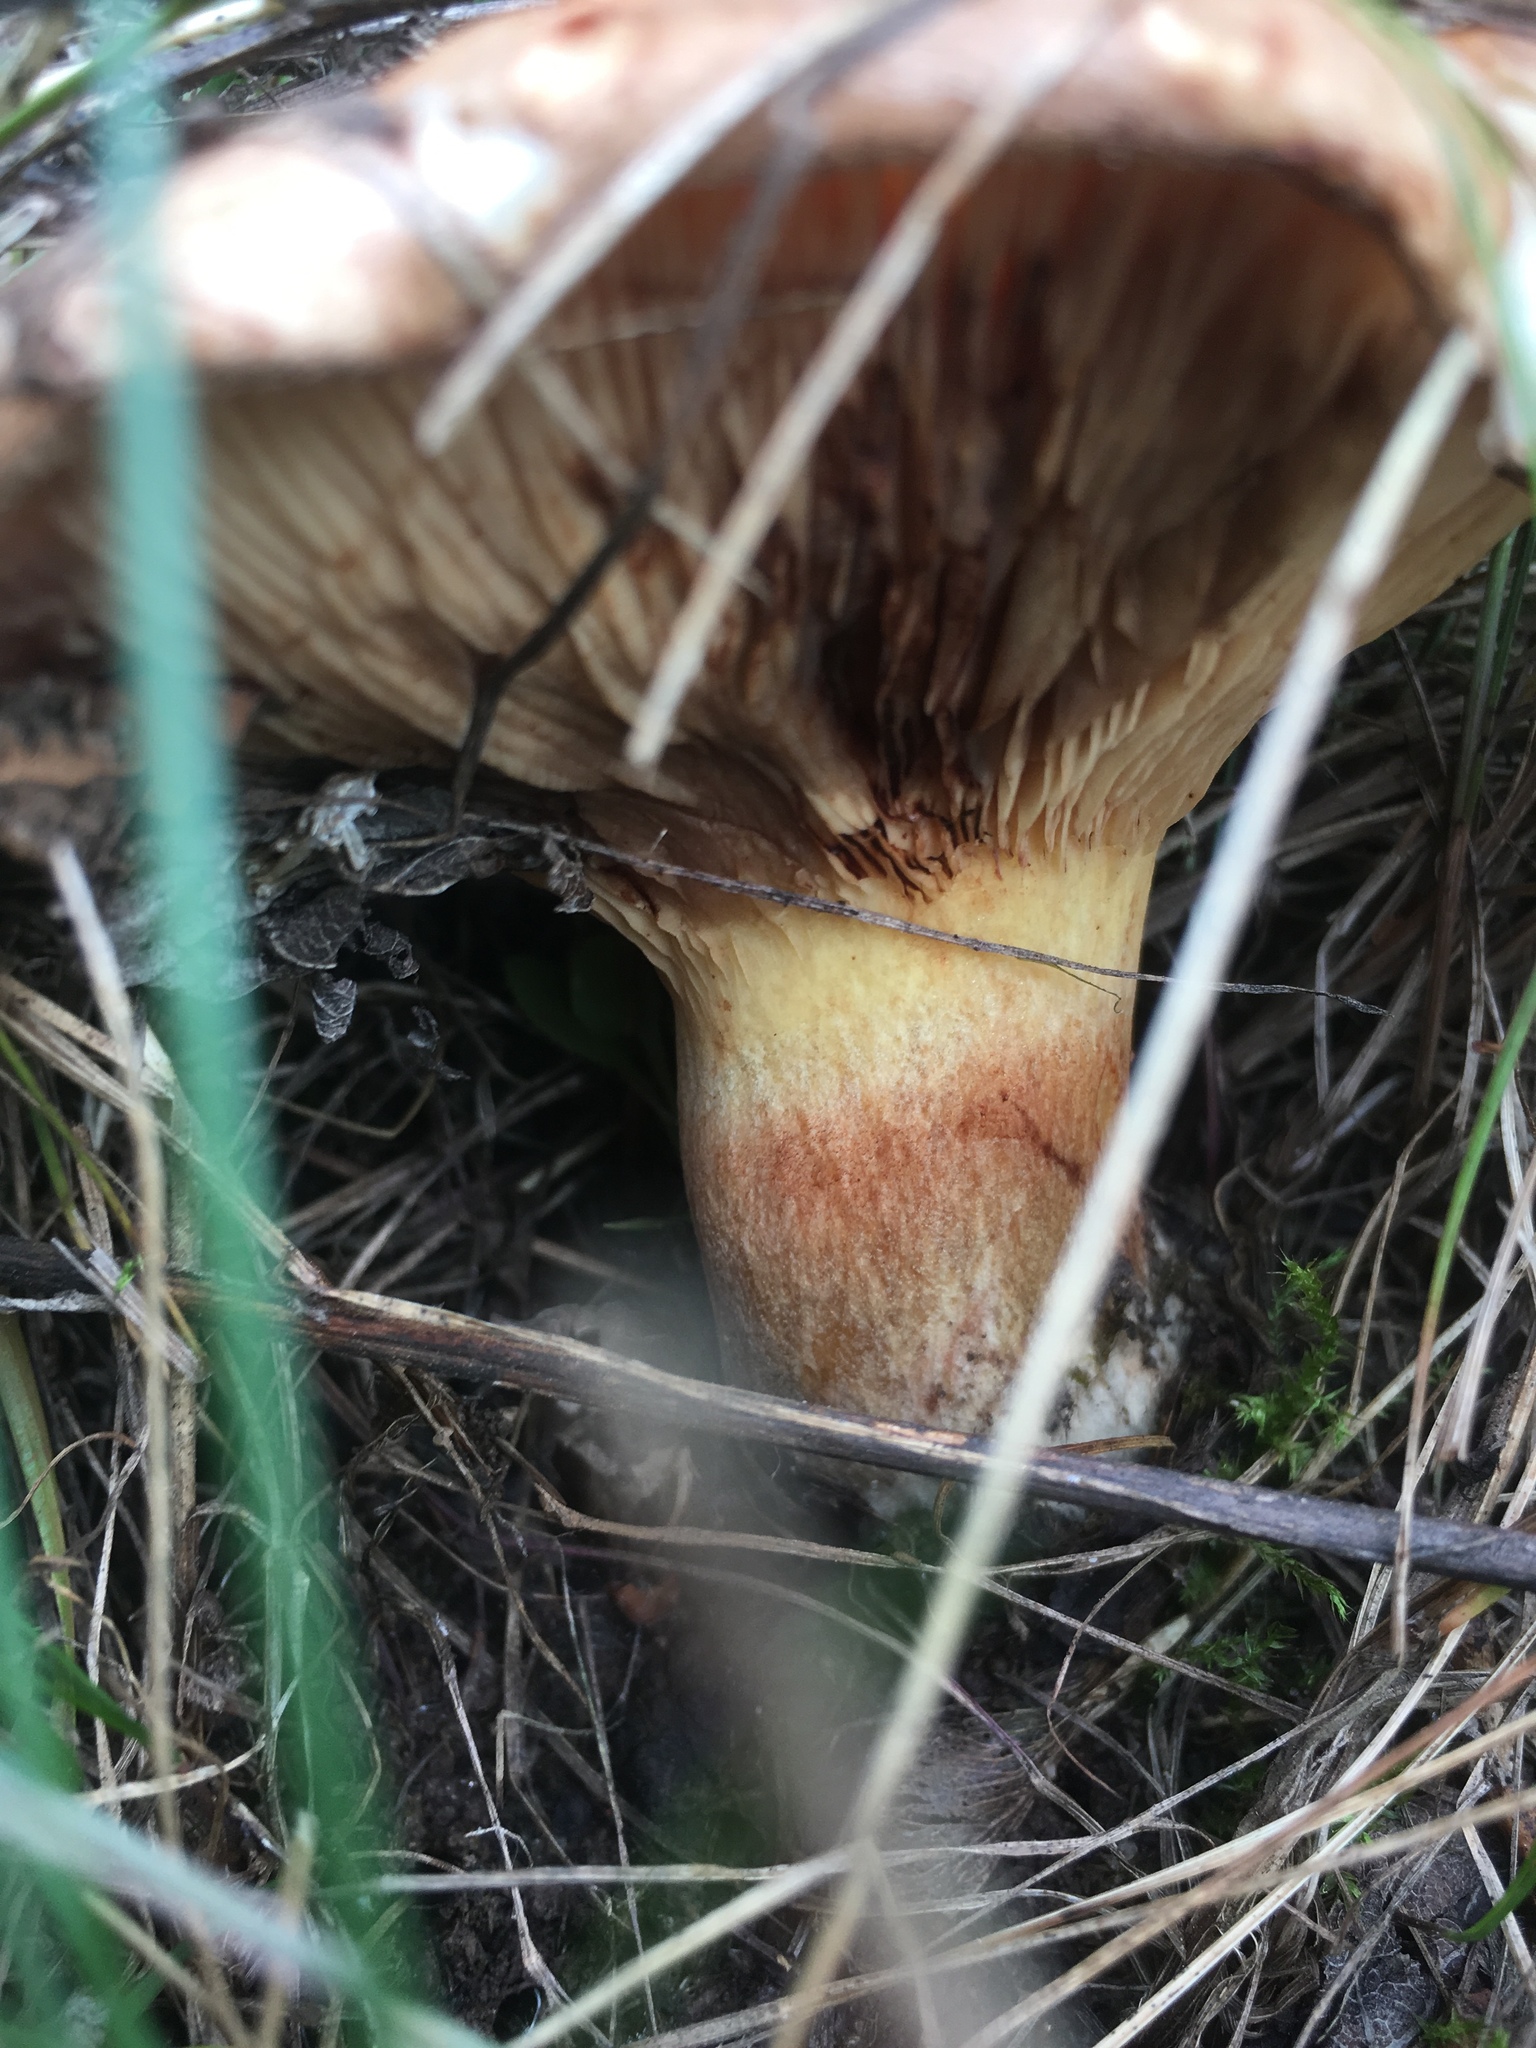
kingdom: Fungi
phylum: Basidiomycota
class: Agaricomycetes
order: Boletales
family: Paxillaceae
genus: Paxillus
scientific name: Paxillus involutus
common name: Brown roll rim
